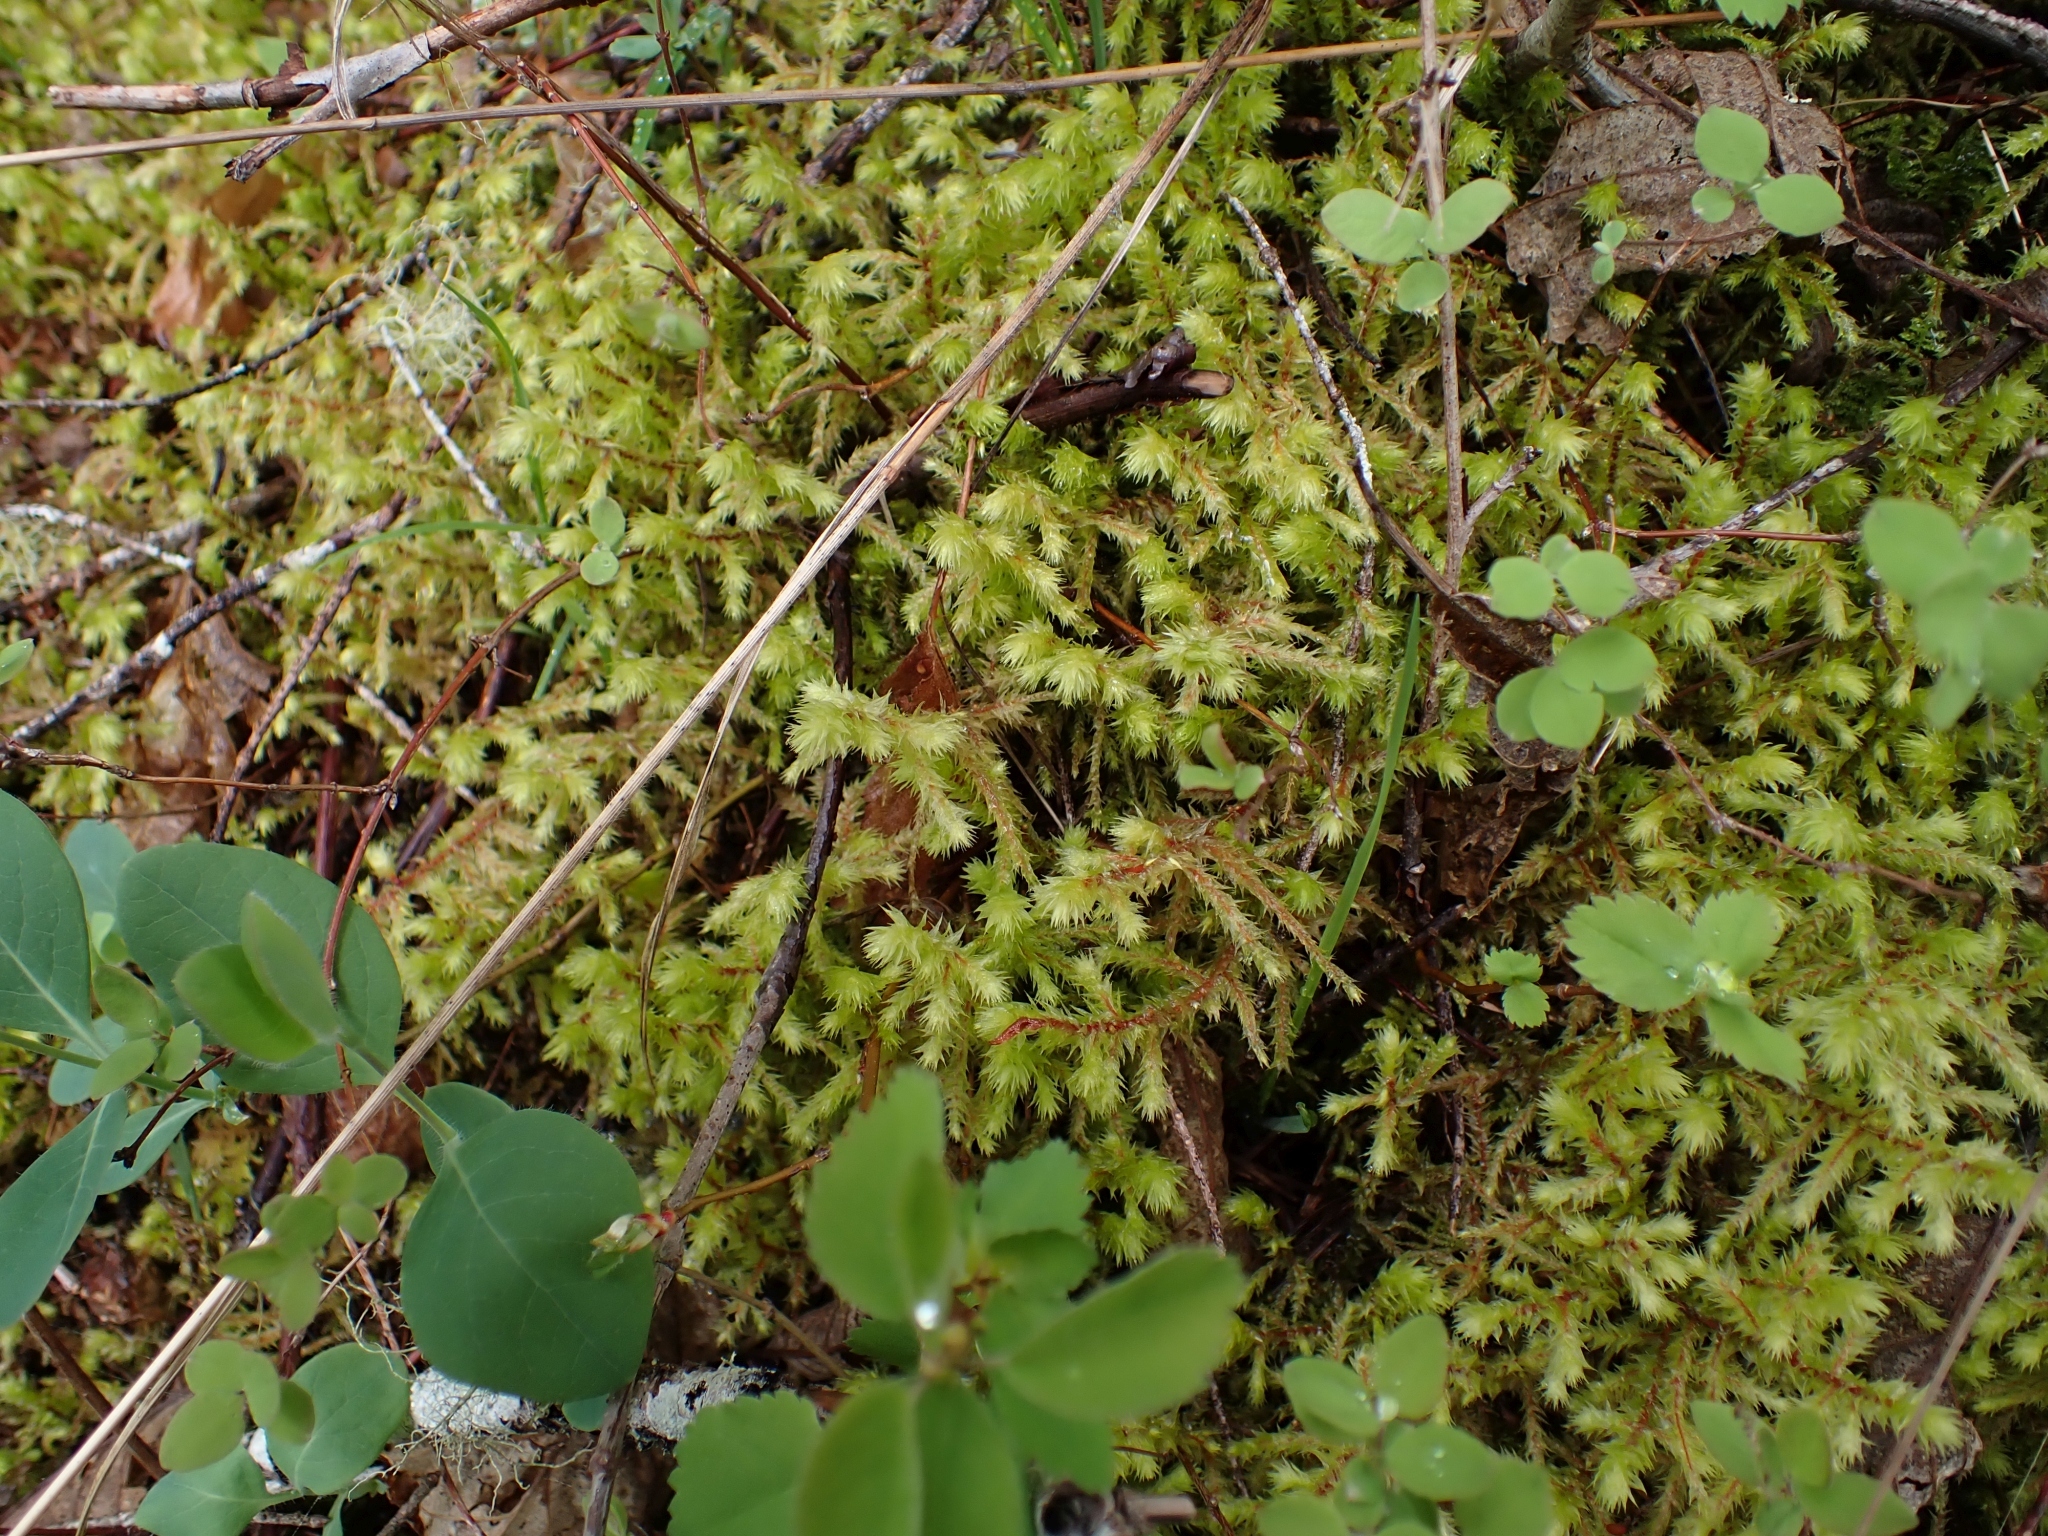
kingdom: Plantae
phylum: Bryophyta
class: Bryopsida
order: Hypnales
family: Hylocomiaceae
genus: Hylocomiadelphus
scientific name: Hylocomiadelphus triquetrus
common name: Rough goose neck moss
